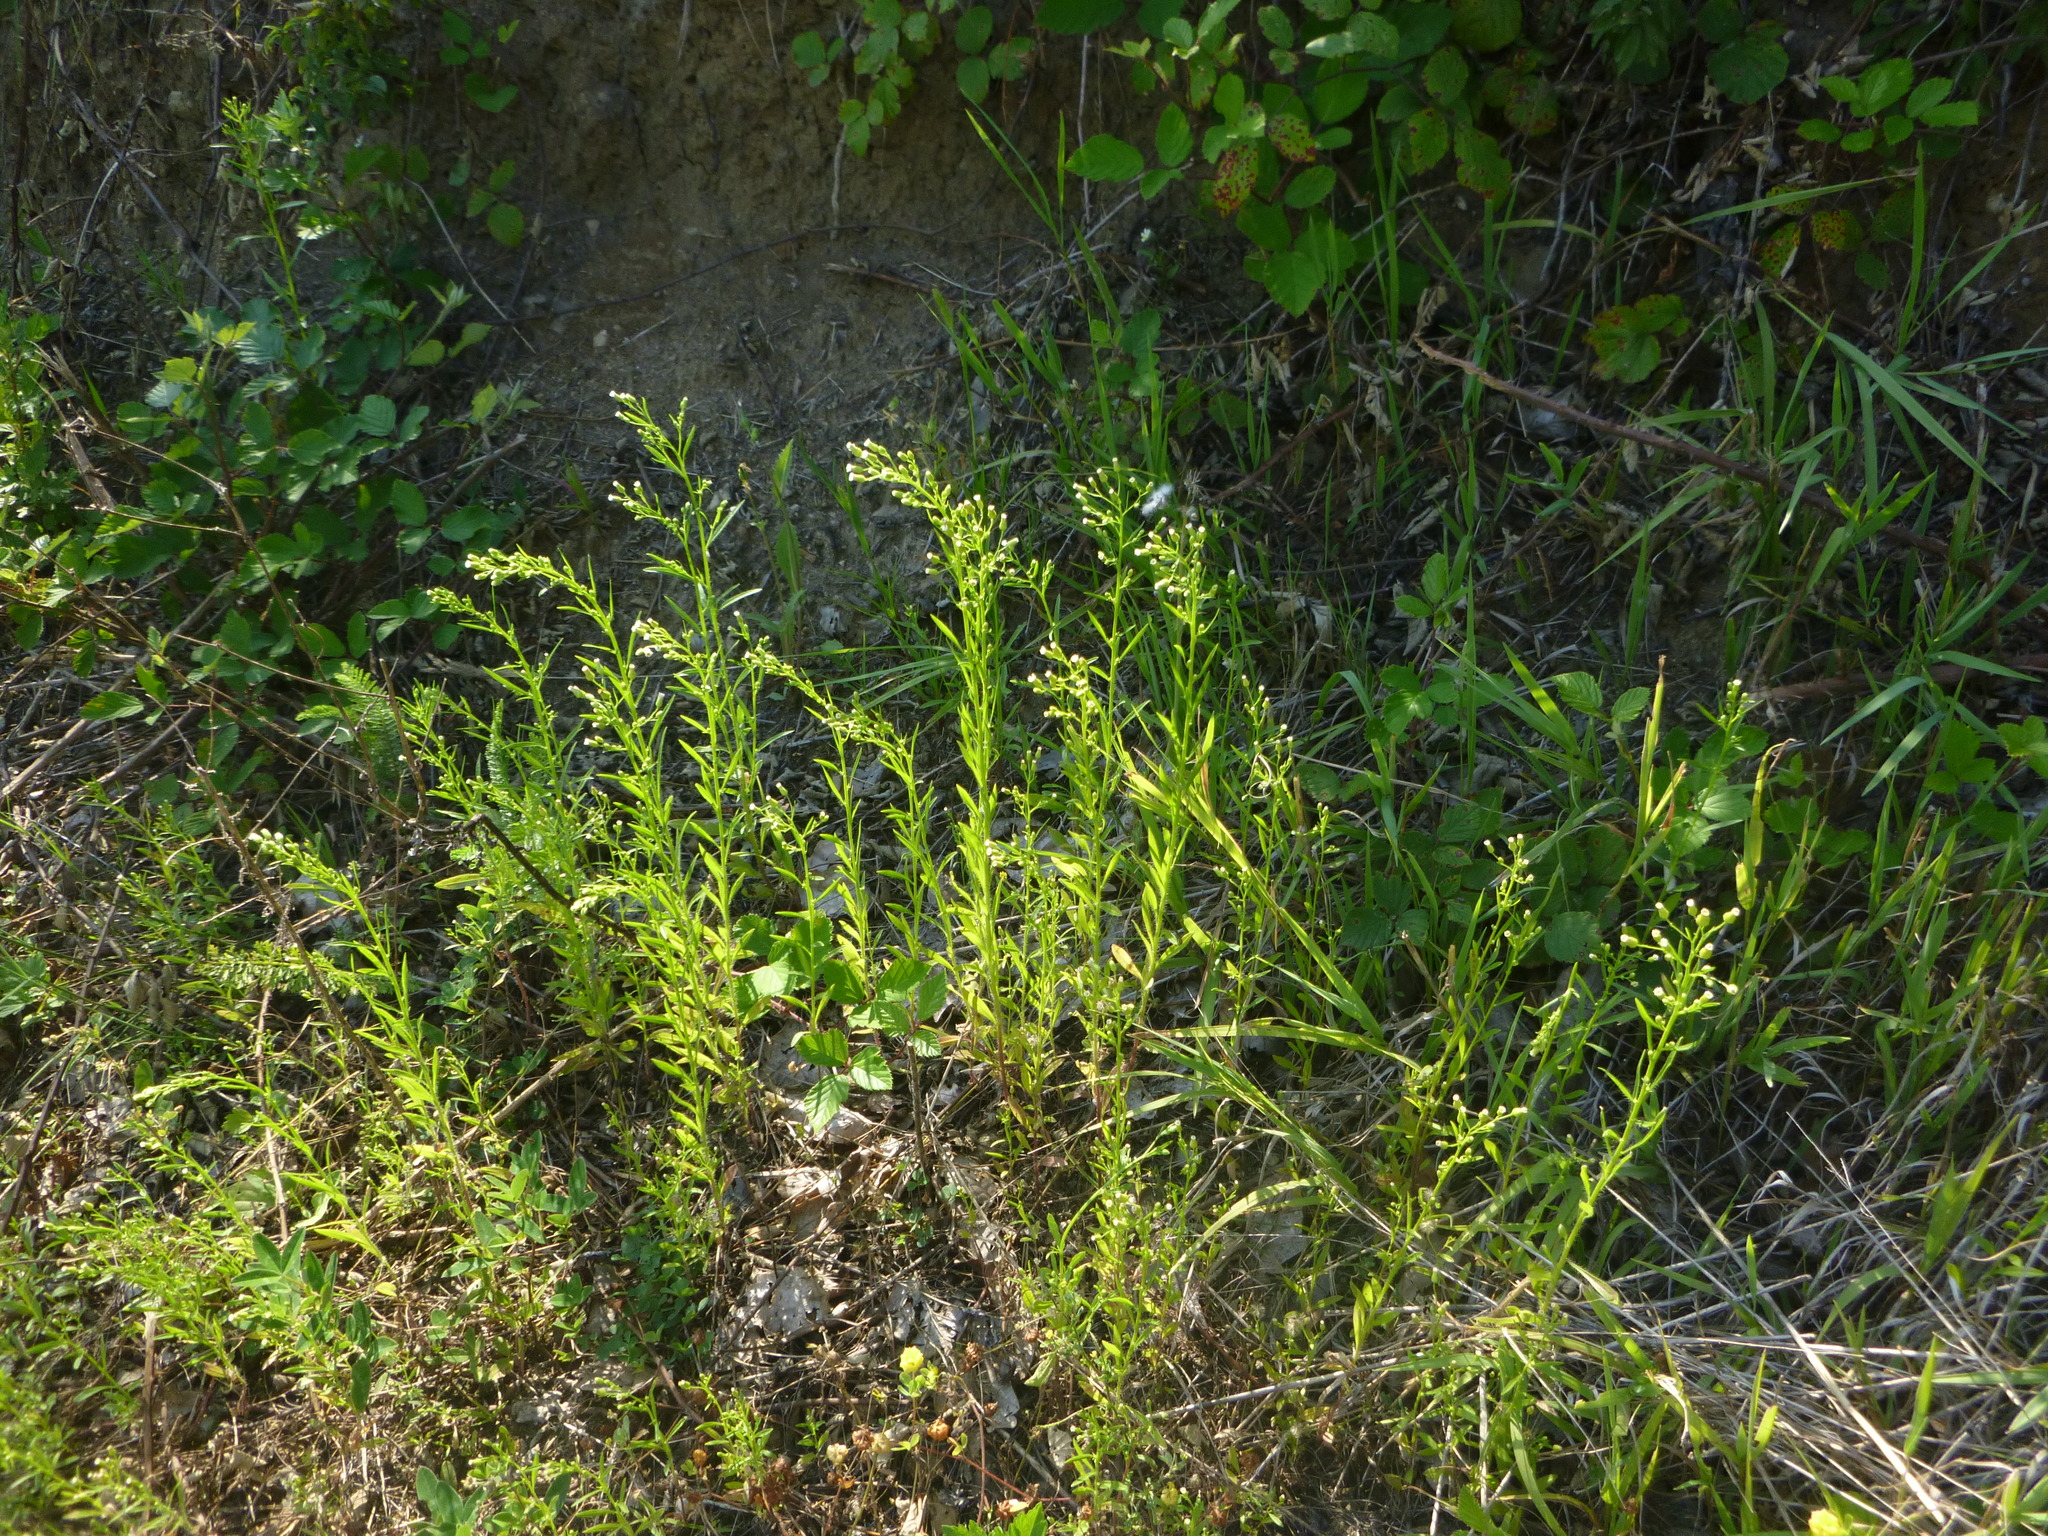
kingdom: Plantae
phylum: Tracheophyta
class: Magnoliopsida
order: Asterales
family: Asteraceae
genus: Erigeron
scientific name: Erigeron canadensis
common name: Canadian fleabane
